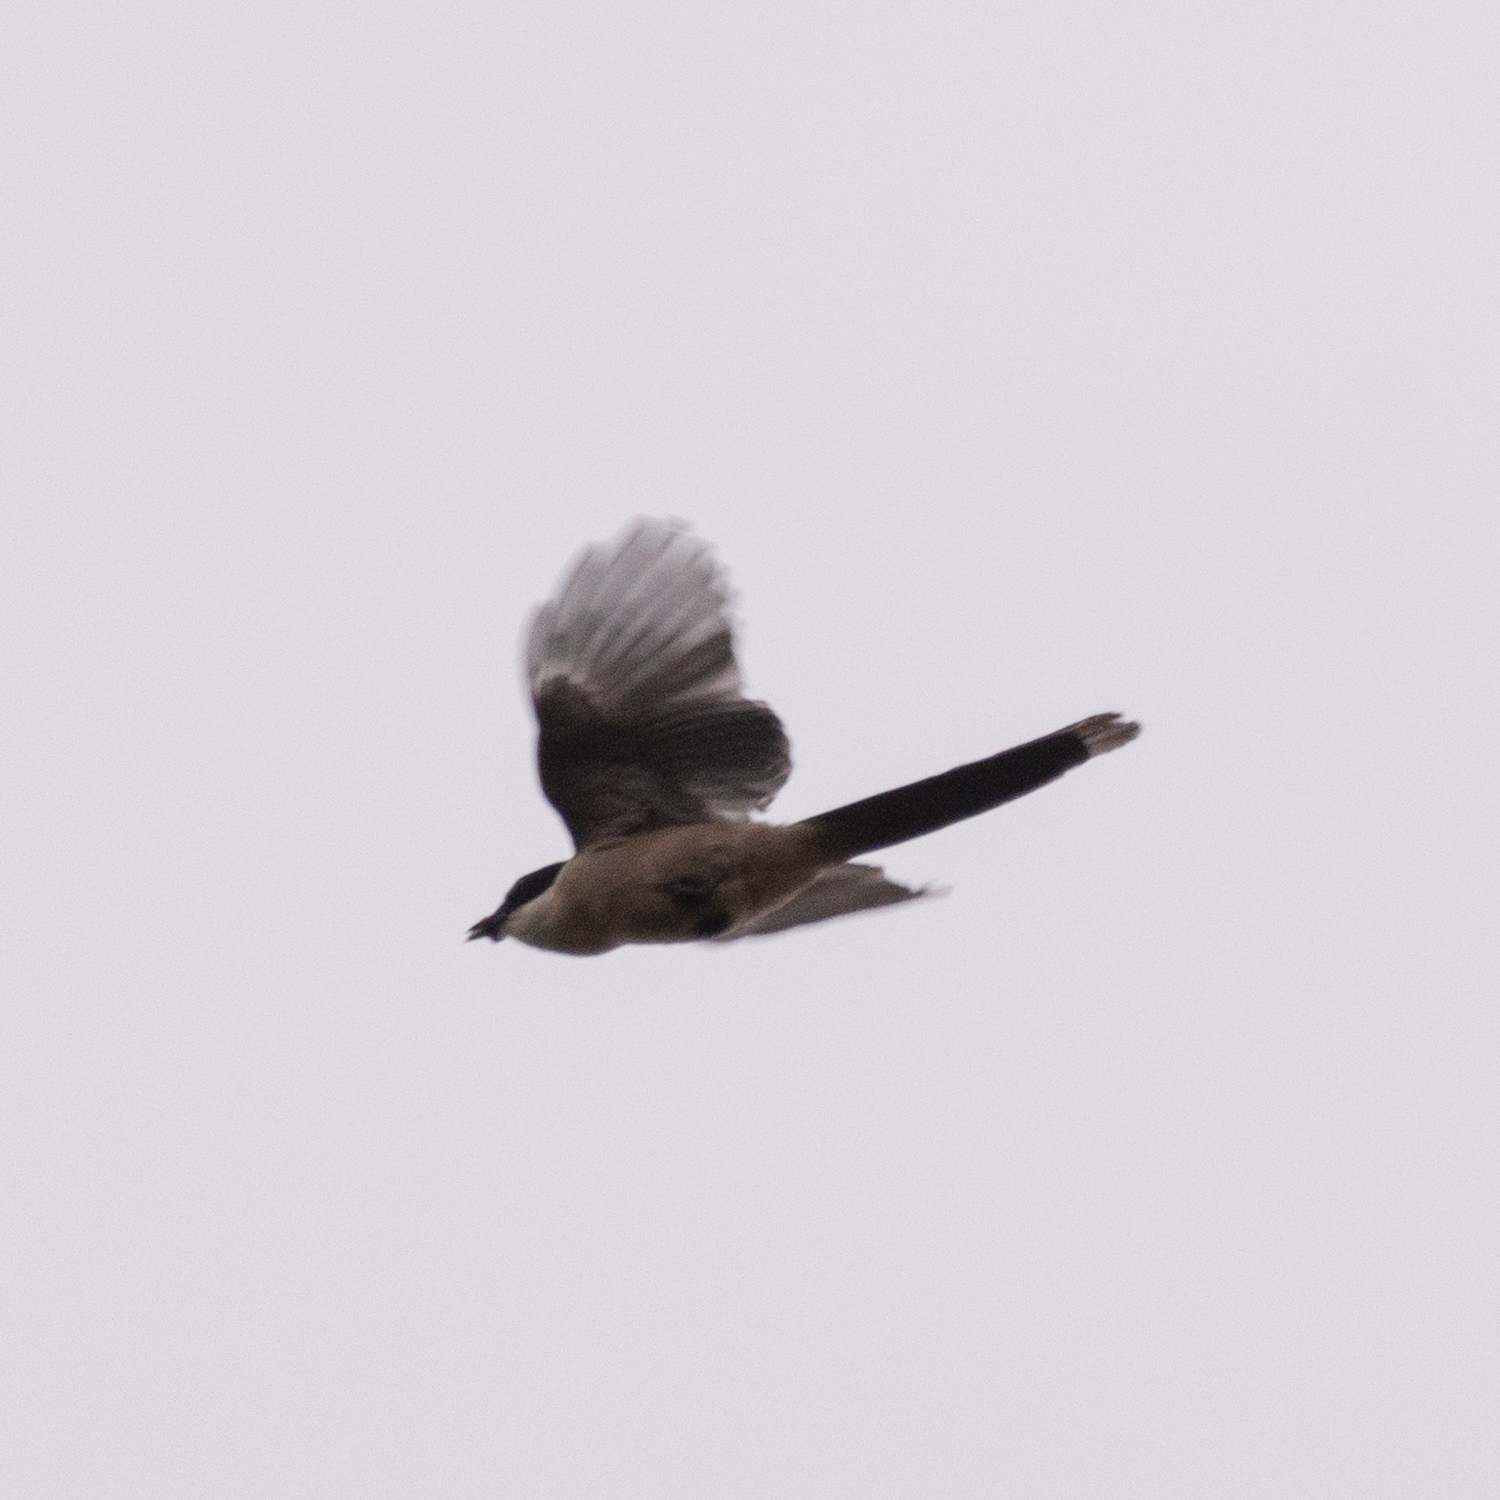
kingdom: Animalia
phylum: Chordata
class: Aves
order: Passeriformes
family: Corvidae
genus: Cyanopica
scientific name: Cyanopica cooki
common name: Iberian magpie
